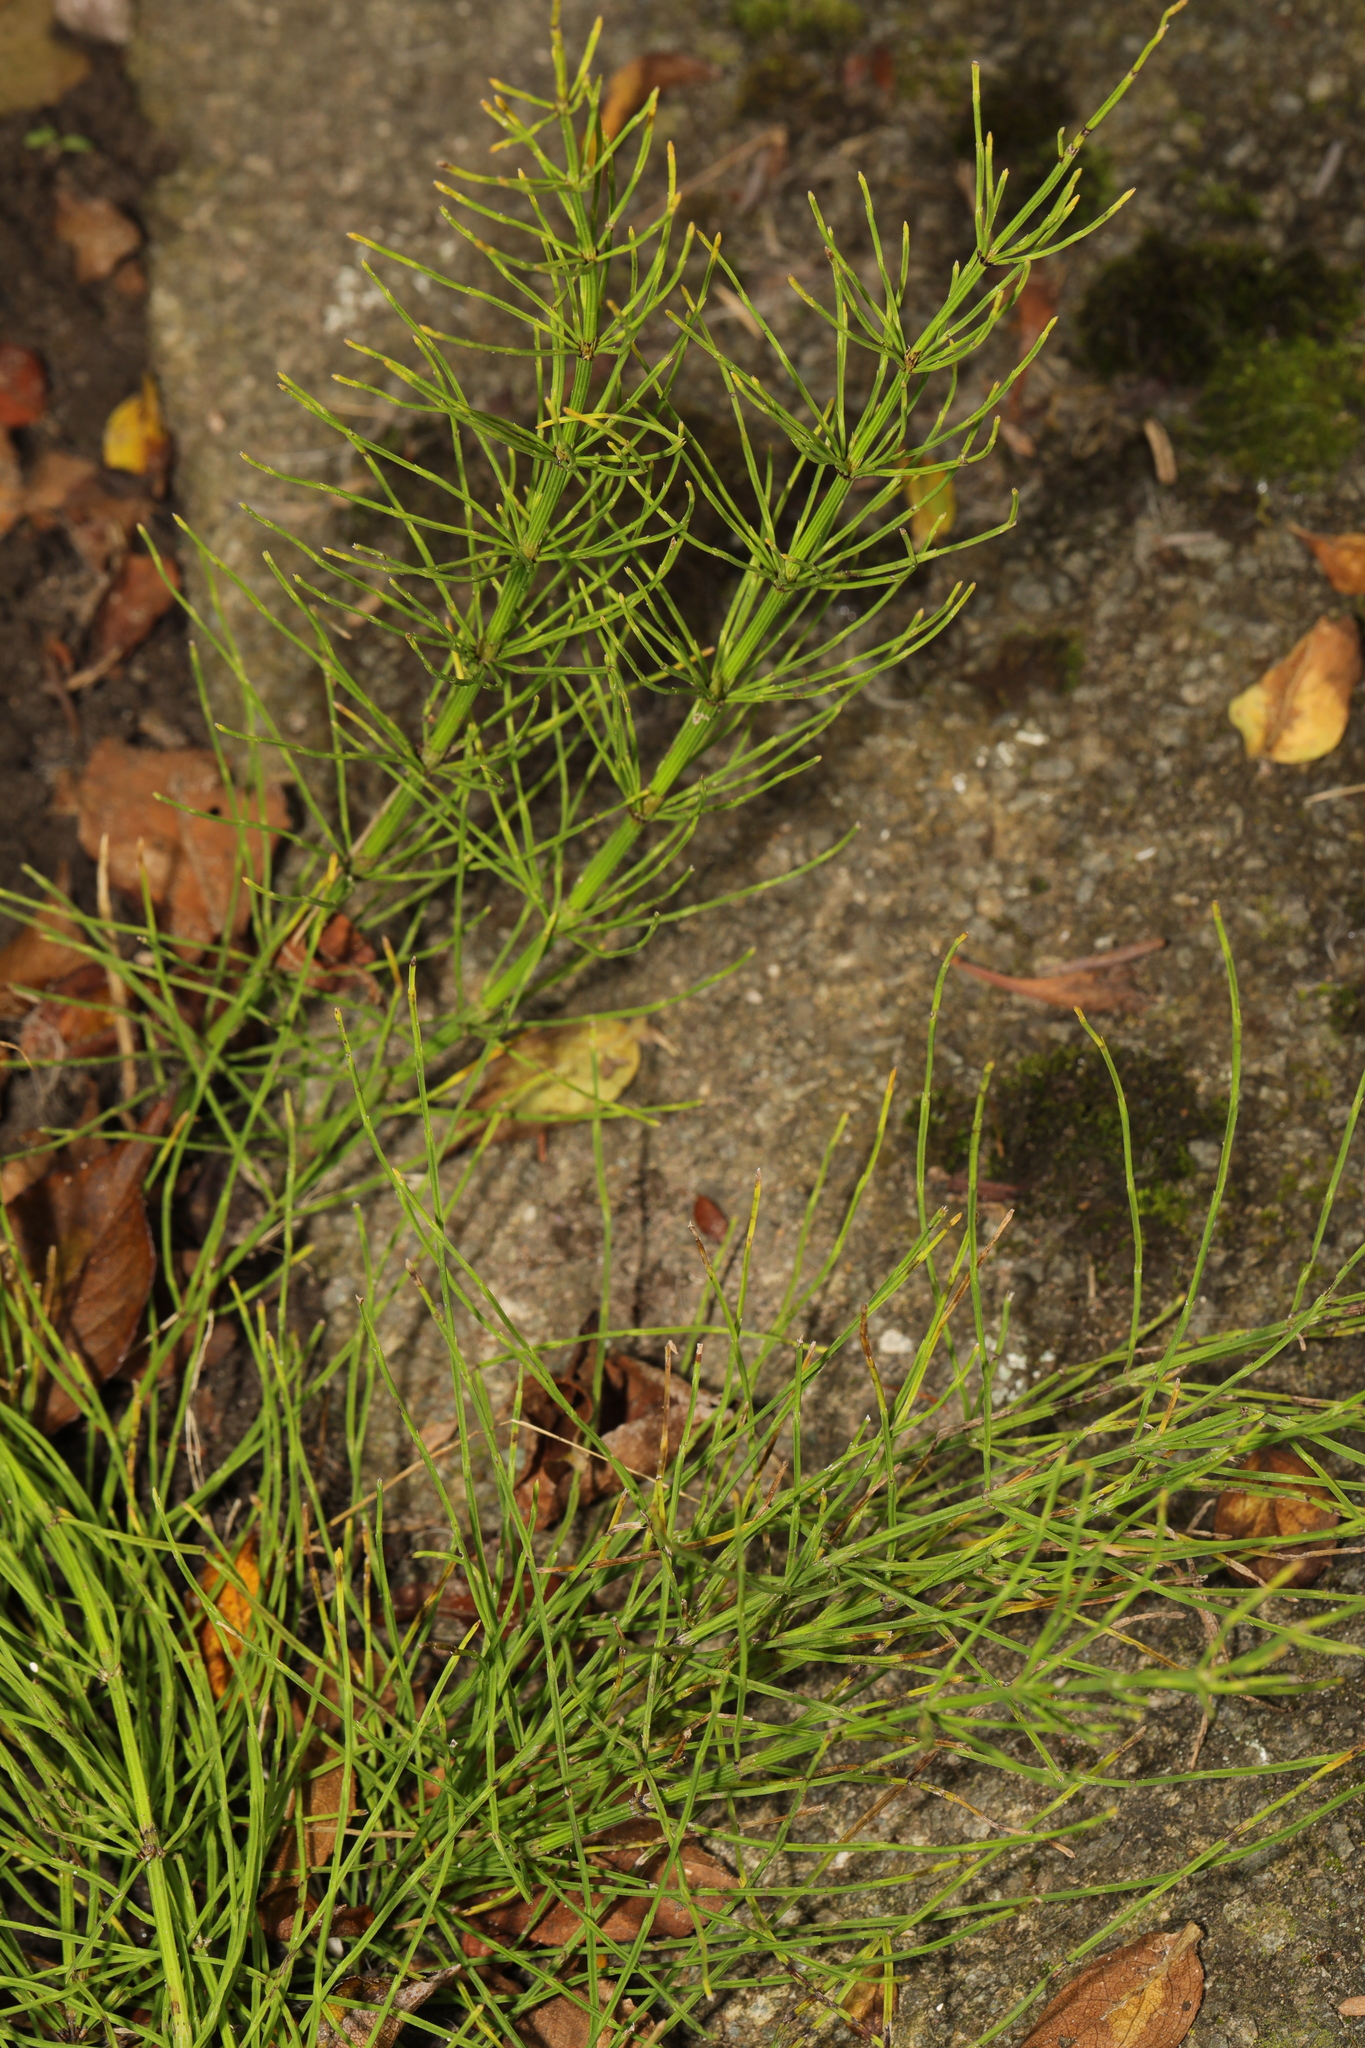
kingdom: Plantae
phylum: Tracheophyta
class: Polypodiopsida
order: Equisetales
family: Equisetaceae
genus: Equisetum
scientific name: Equisetum arvense
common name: Field horsetail
